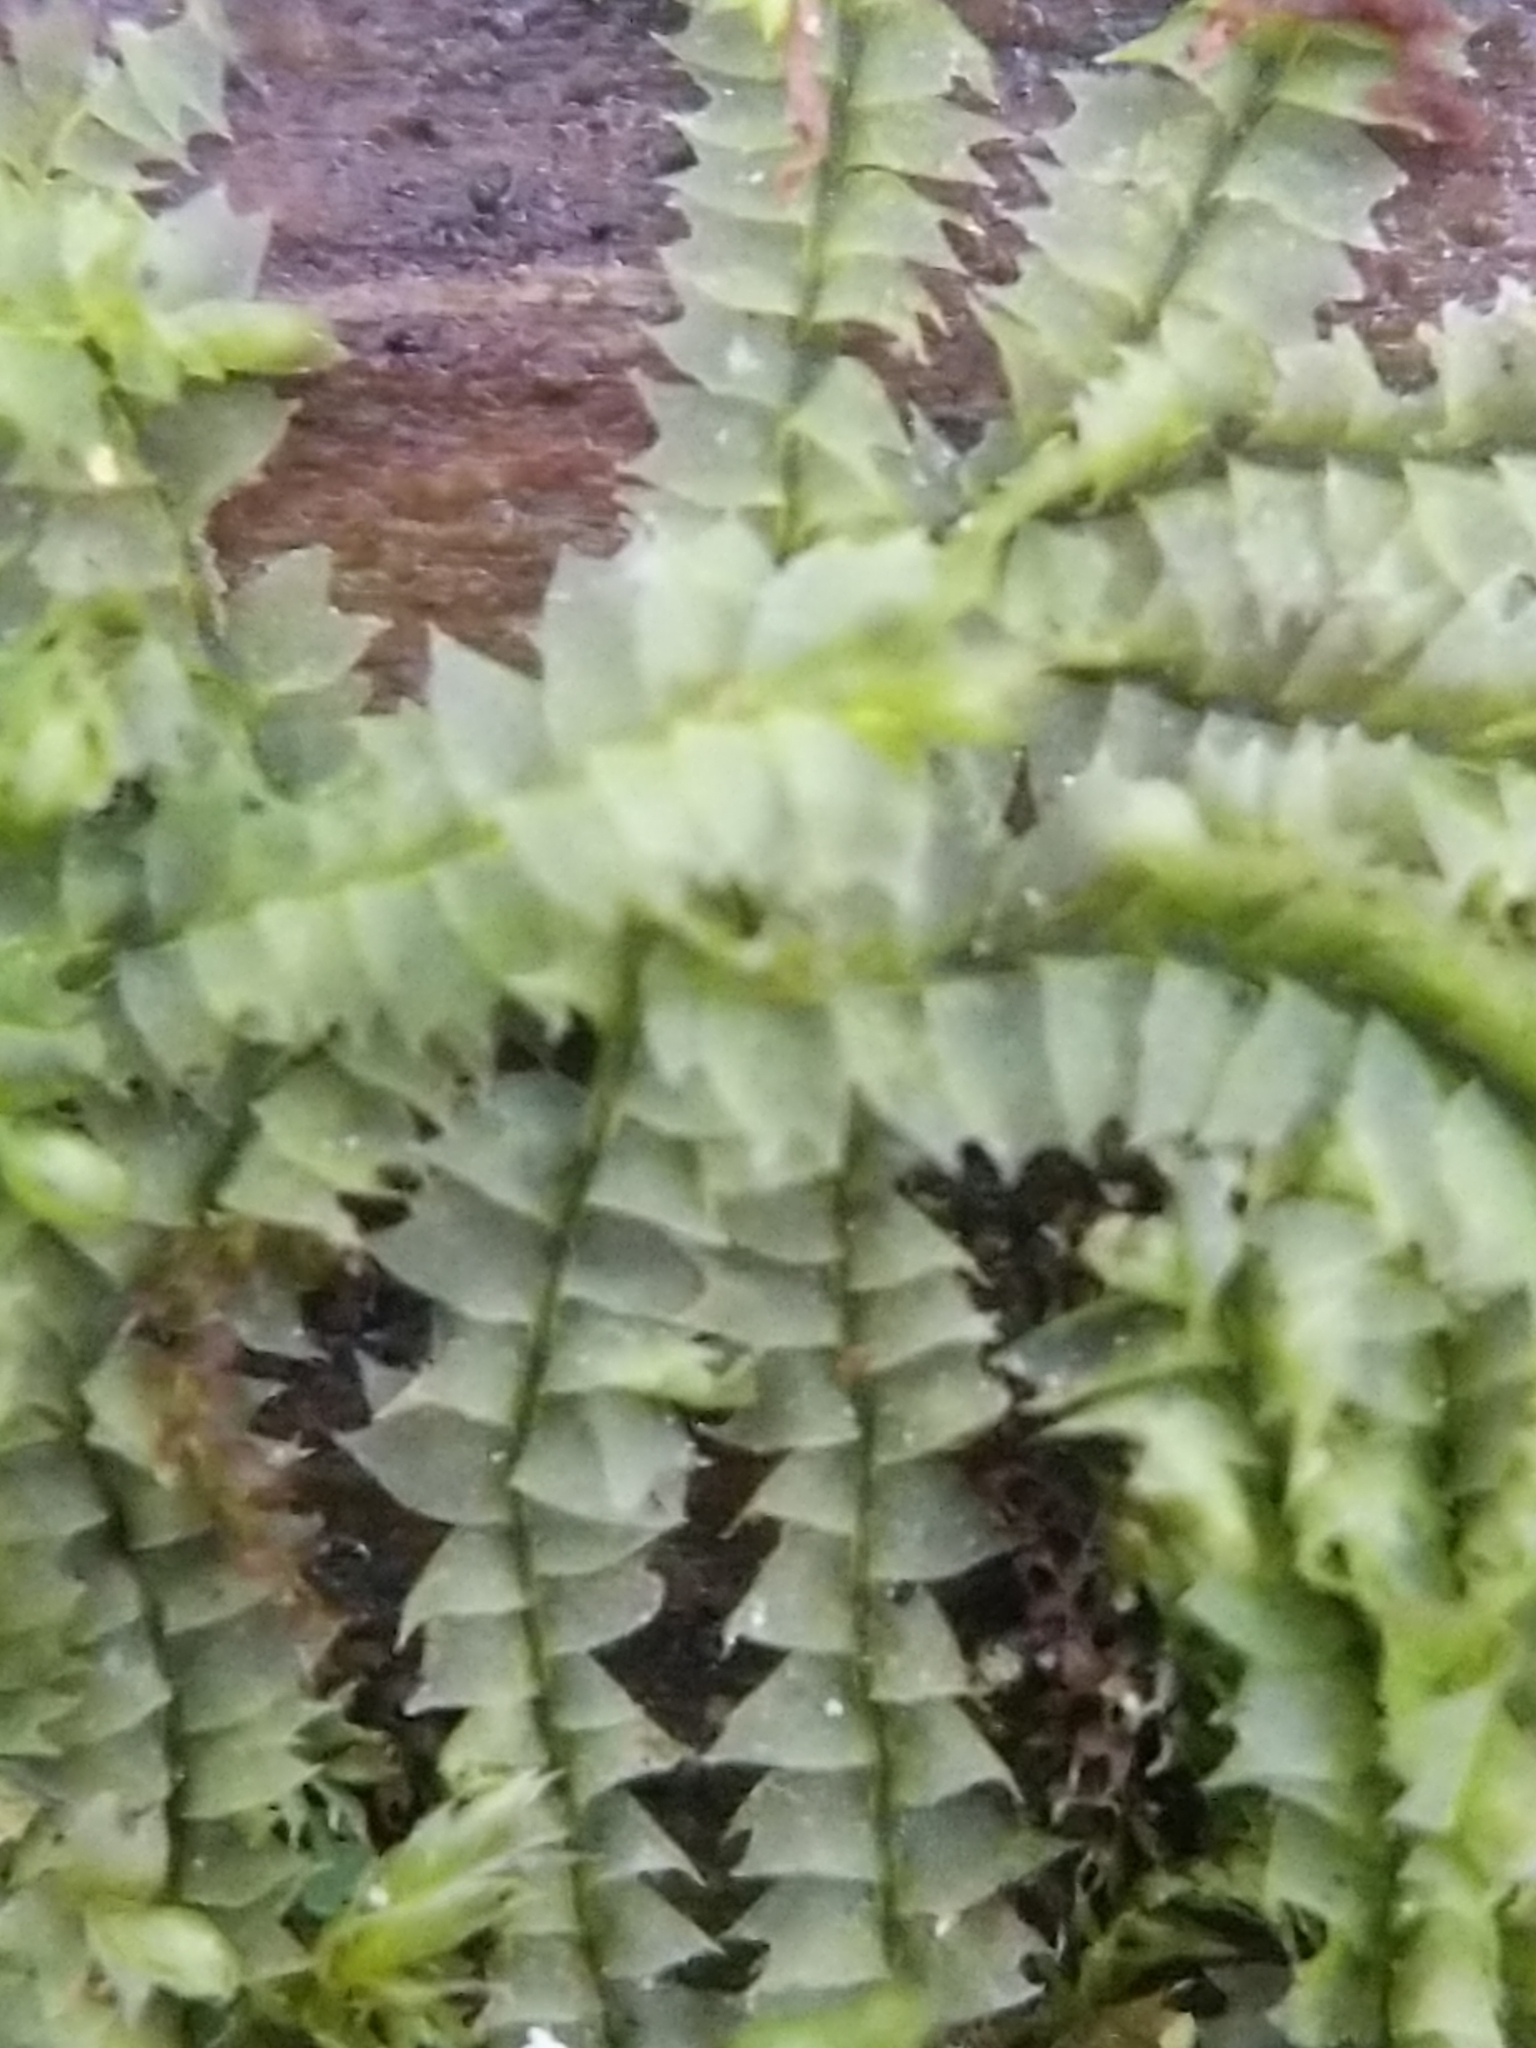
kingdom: Plantae
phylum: Marchantiophyta
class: Jungermanniopsida
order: Jungermanniales
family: Lophocoleaceae
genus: Lophocolea
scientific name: Lophocolea heterophylla
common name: Variable-leaved crestwort
